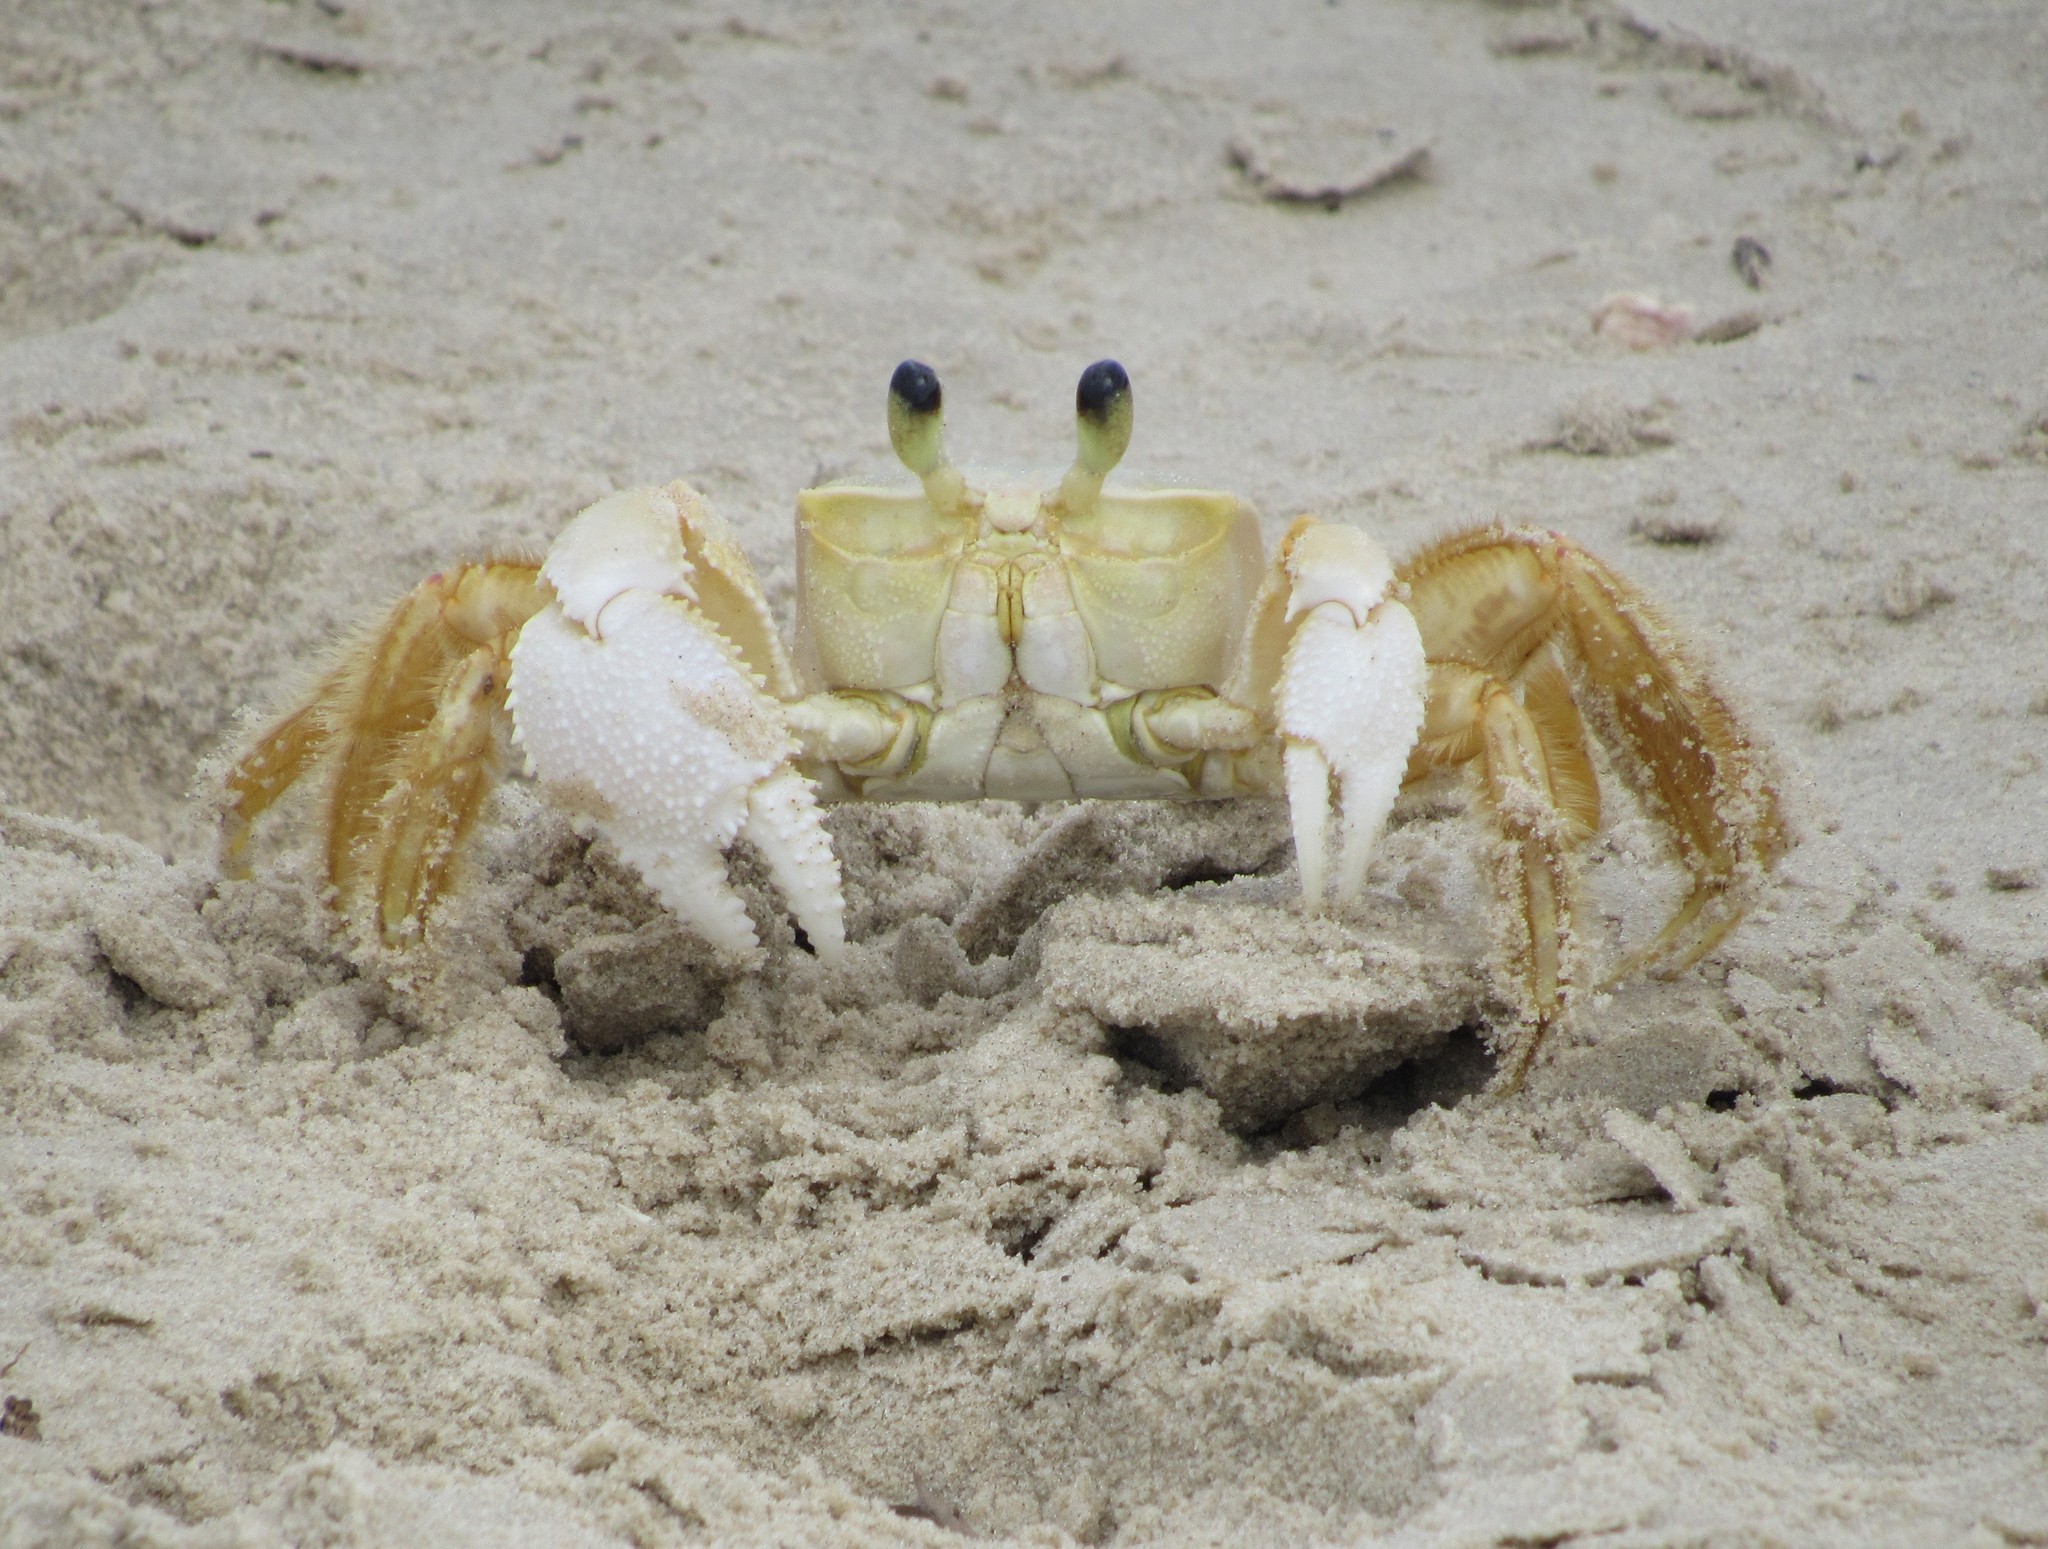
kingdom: Animalia
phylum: Arthropoda
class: Malacostraca
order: Decapoda
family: Ocypodidae
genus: Ocypode
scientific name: Ocypode quadrata
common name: Ghost crab
